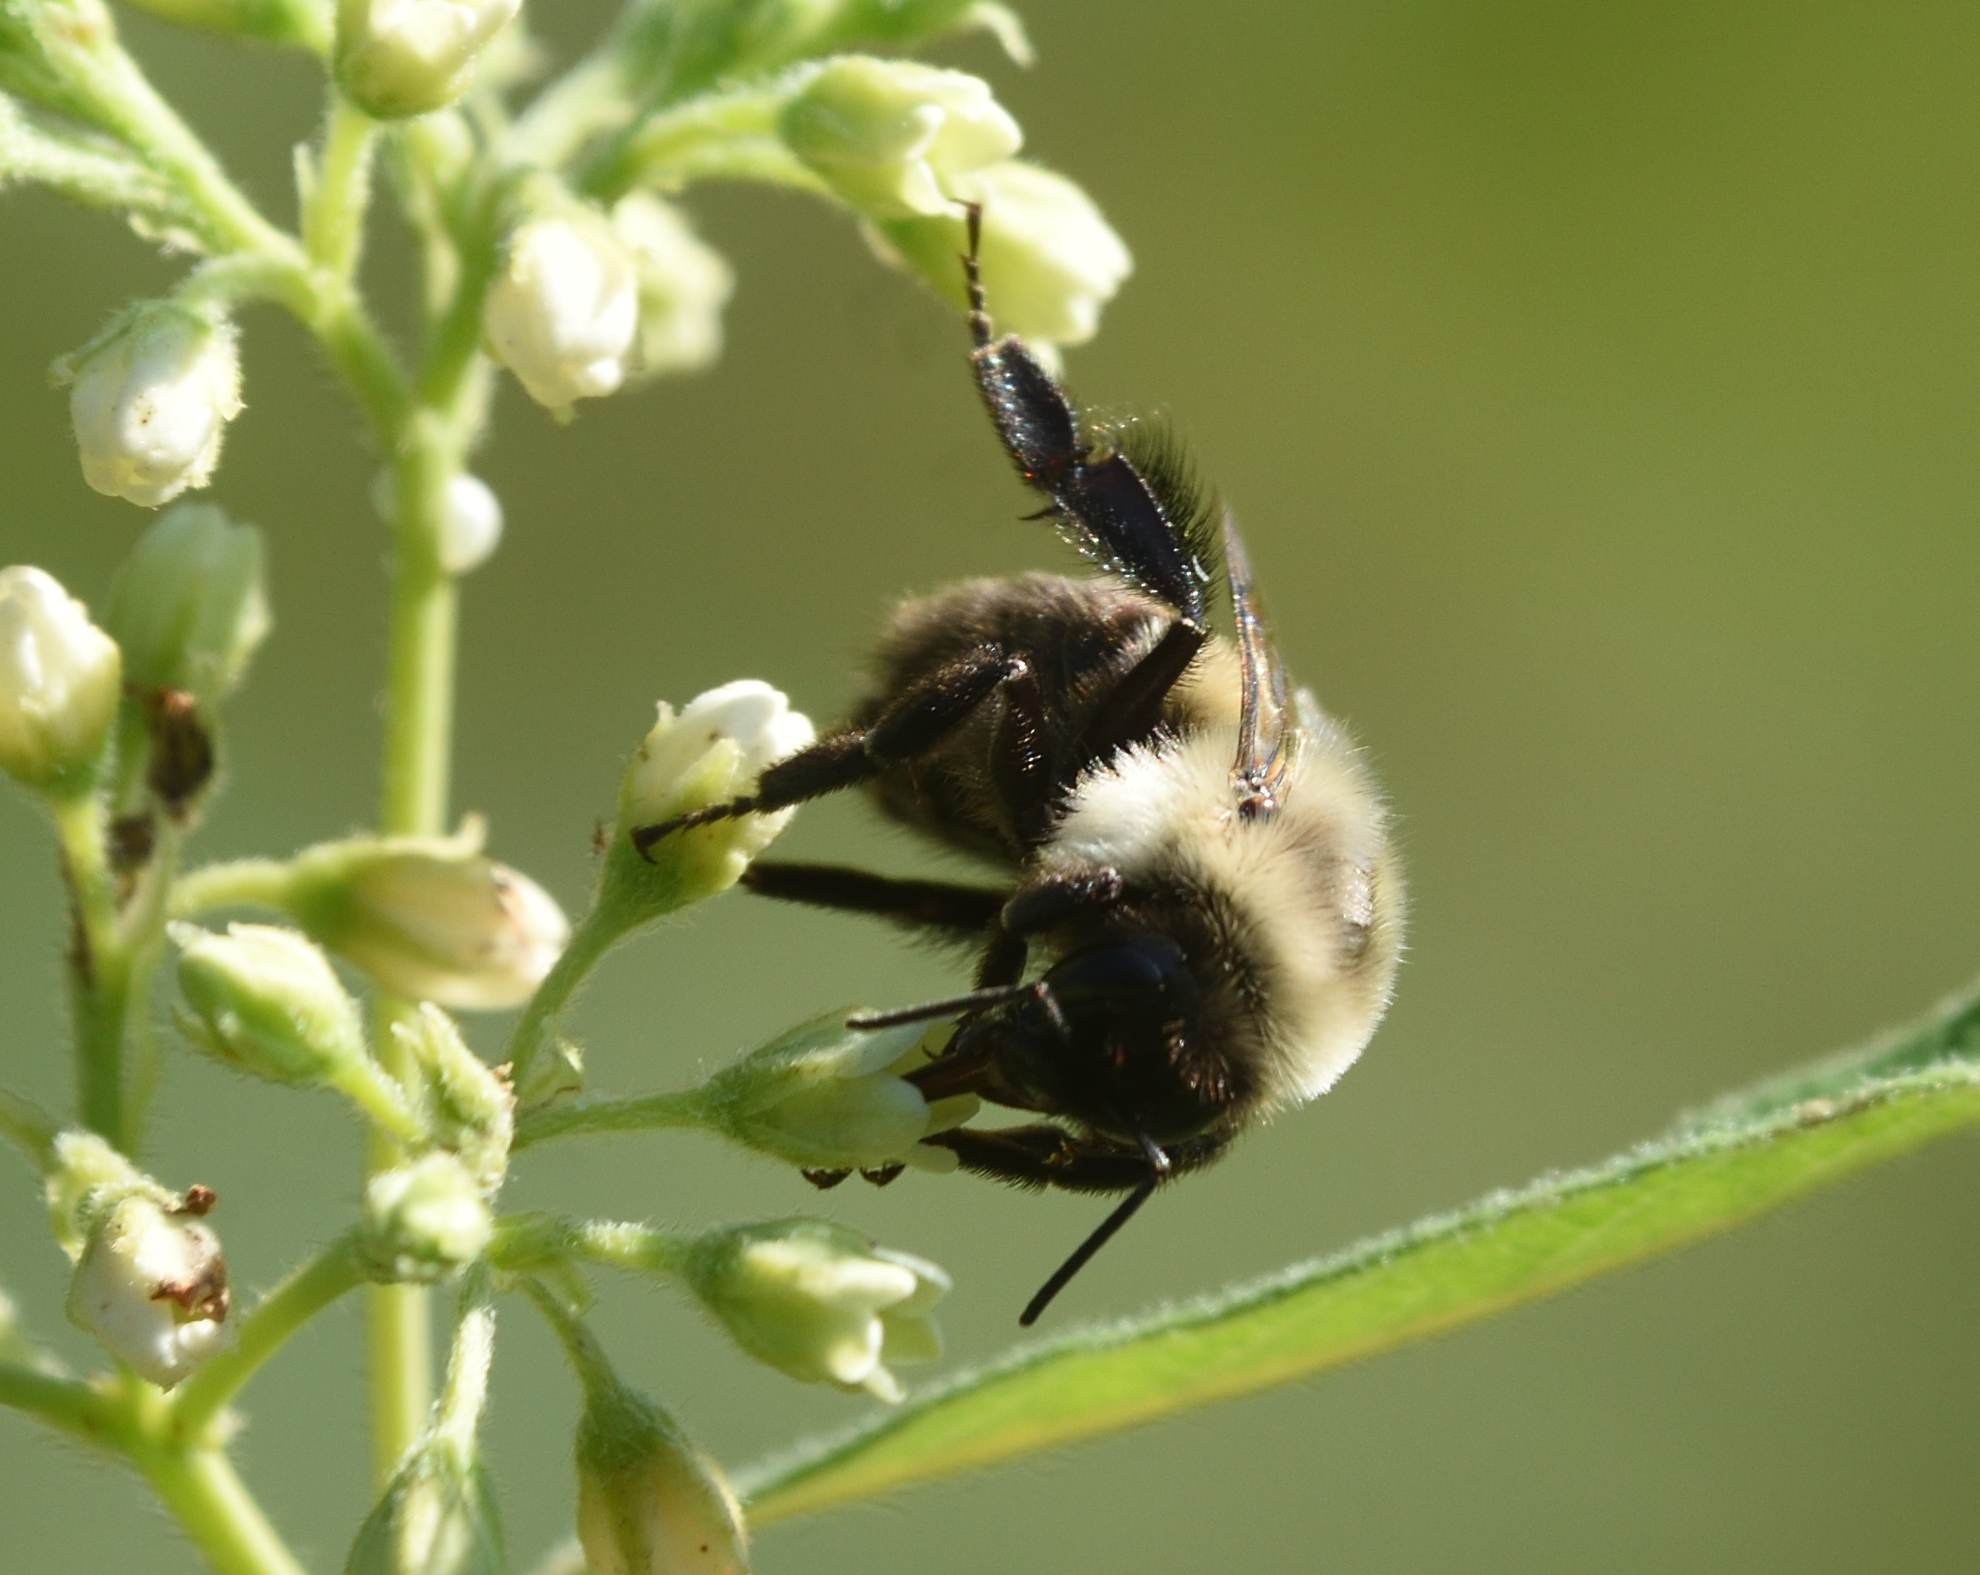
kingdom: Animalia
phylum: Arthropoda
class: Insecta
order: Hymenoptera
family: Apidae
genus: Bombus
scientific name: Bombus impatiens
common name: Common eastern bumble bee
